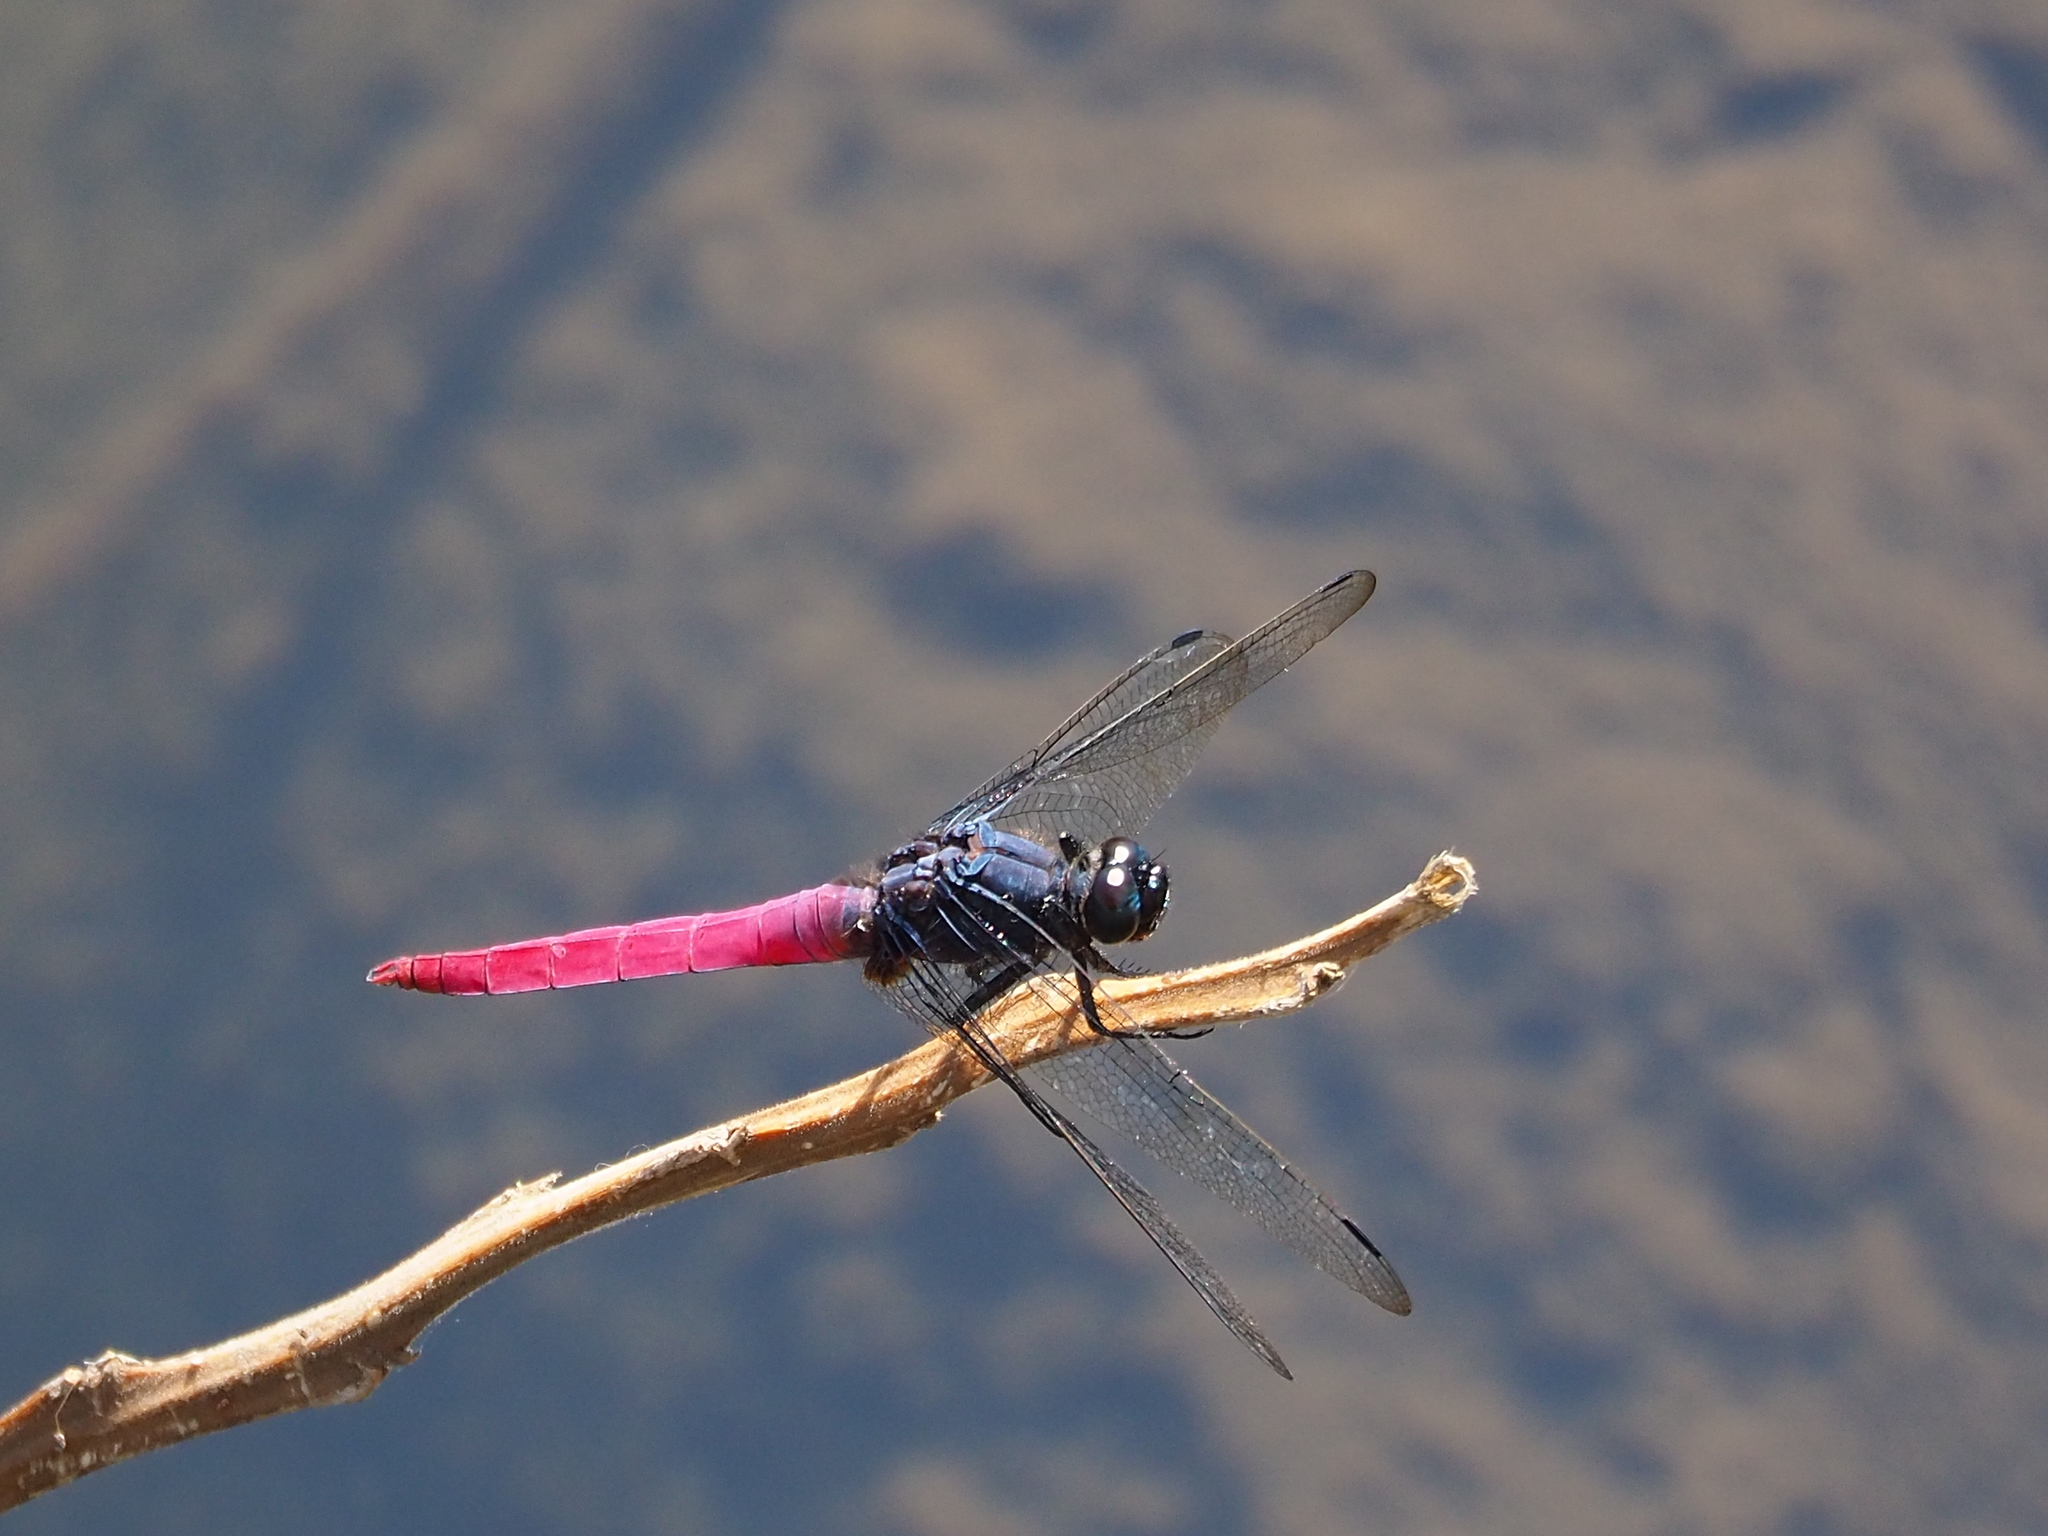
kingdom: Animalia
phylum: Arthropoda
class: Insecta
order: Odonata
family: Libellulidae
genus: Orthetrum
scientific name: Orthetrum pruinosum
